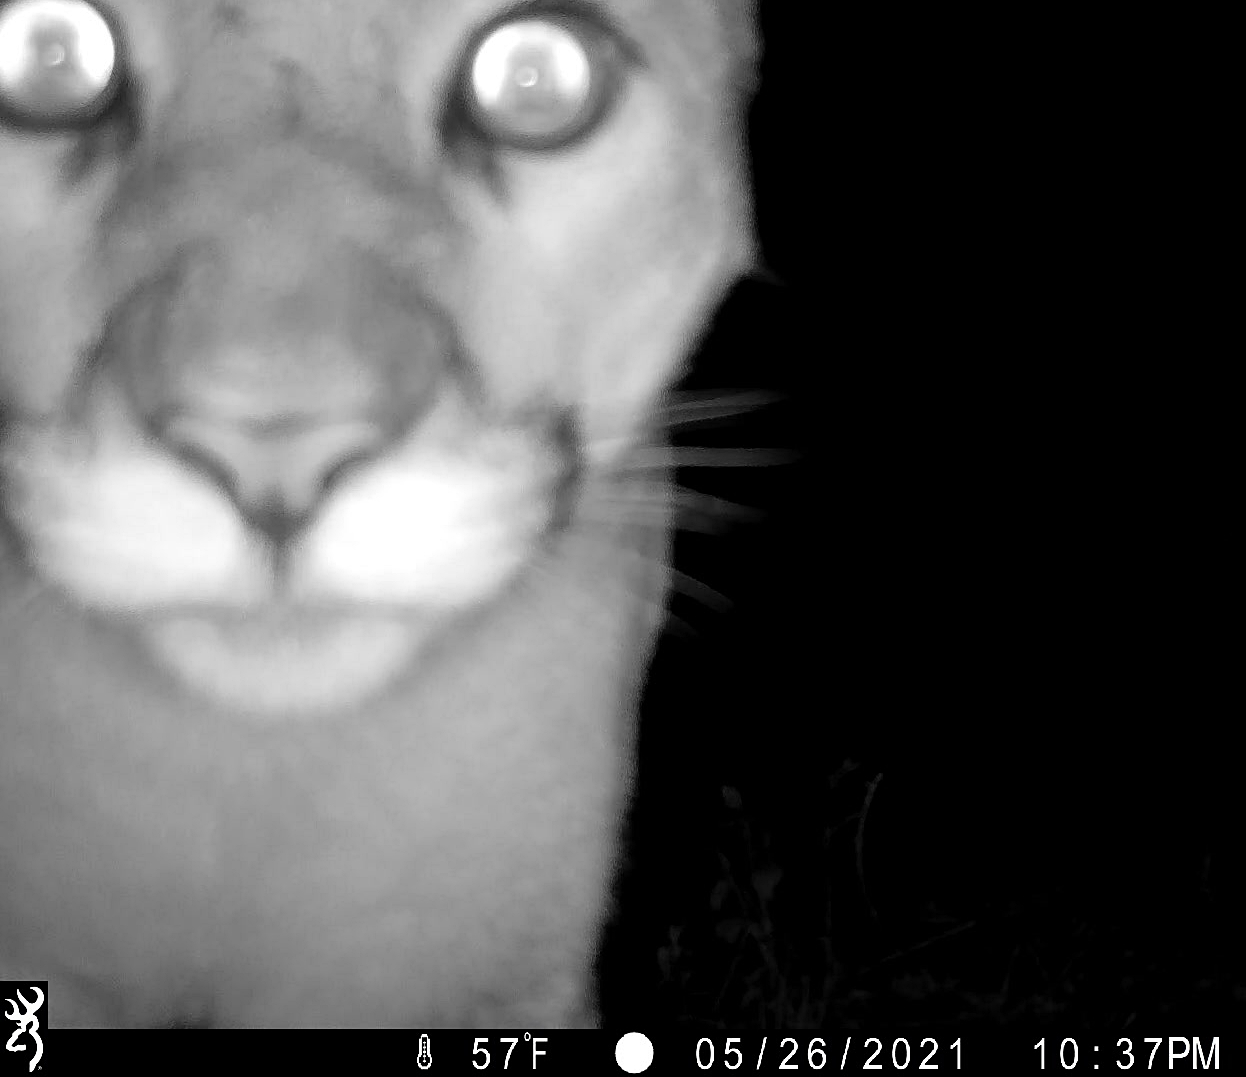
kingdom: Animalia
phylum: Chordata
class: Mammalia
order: Carnivora
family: Felidae
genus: Puma
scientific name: Puma concolor
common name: Puma
